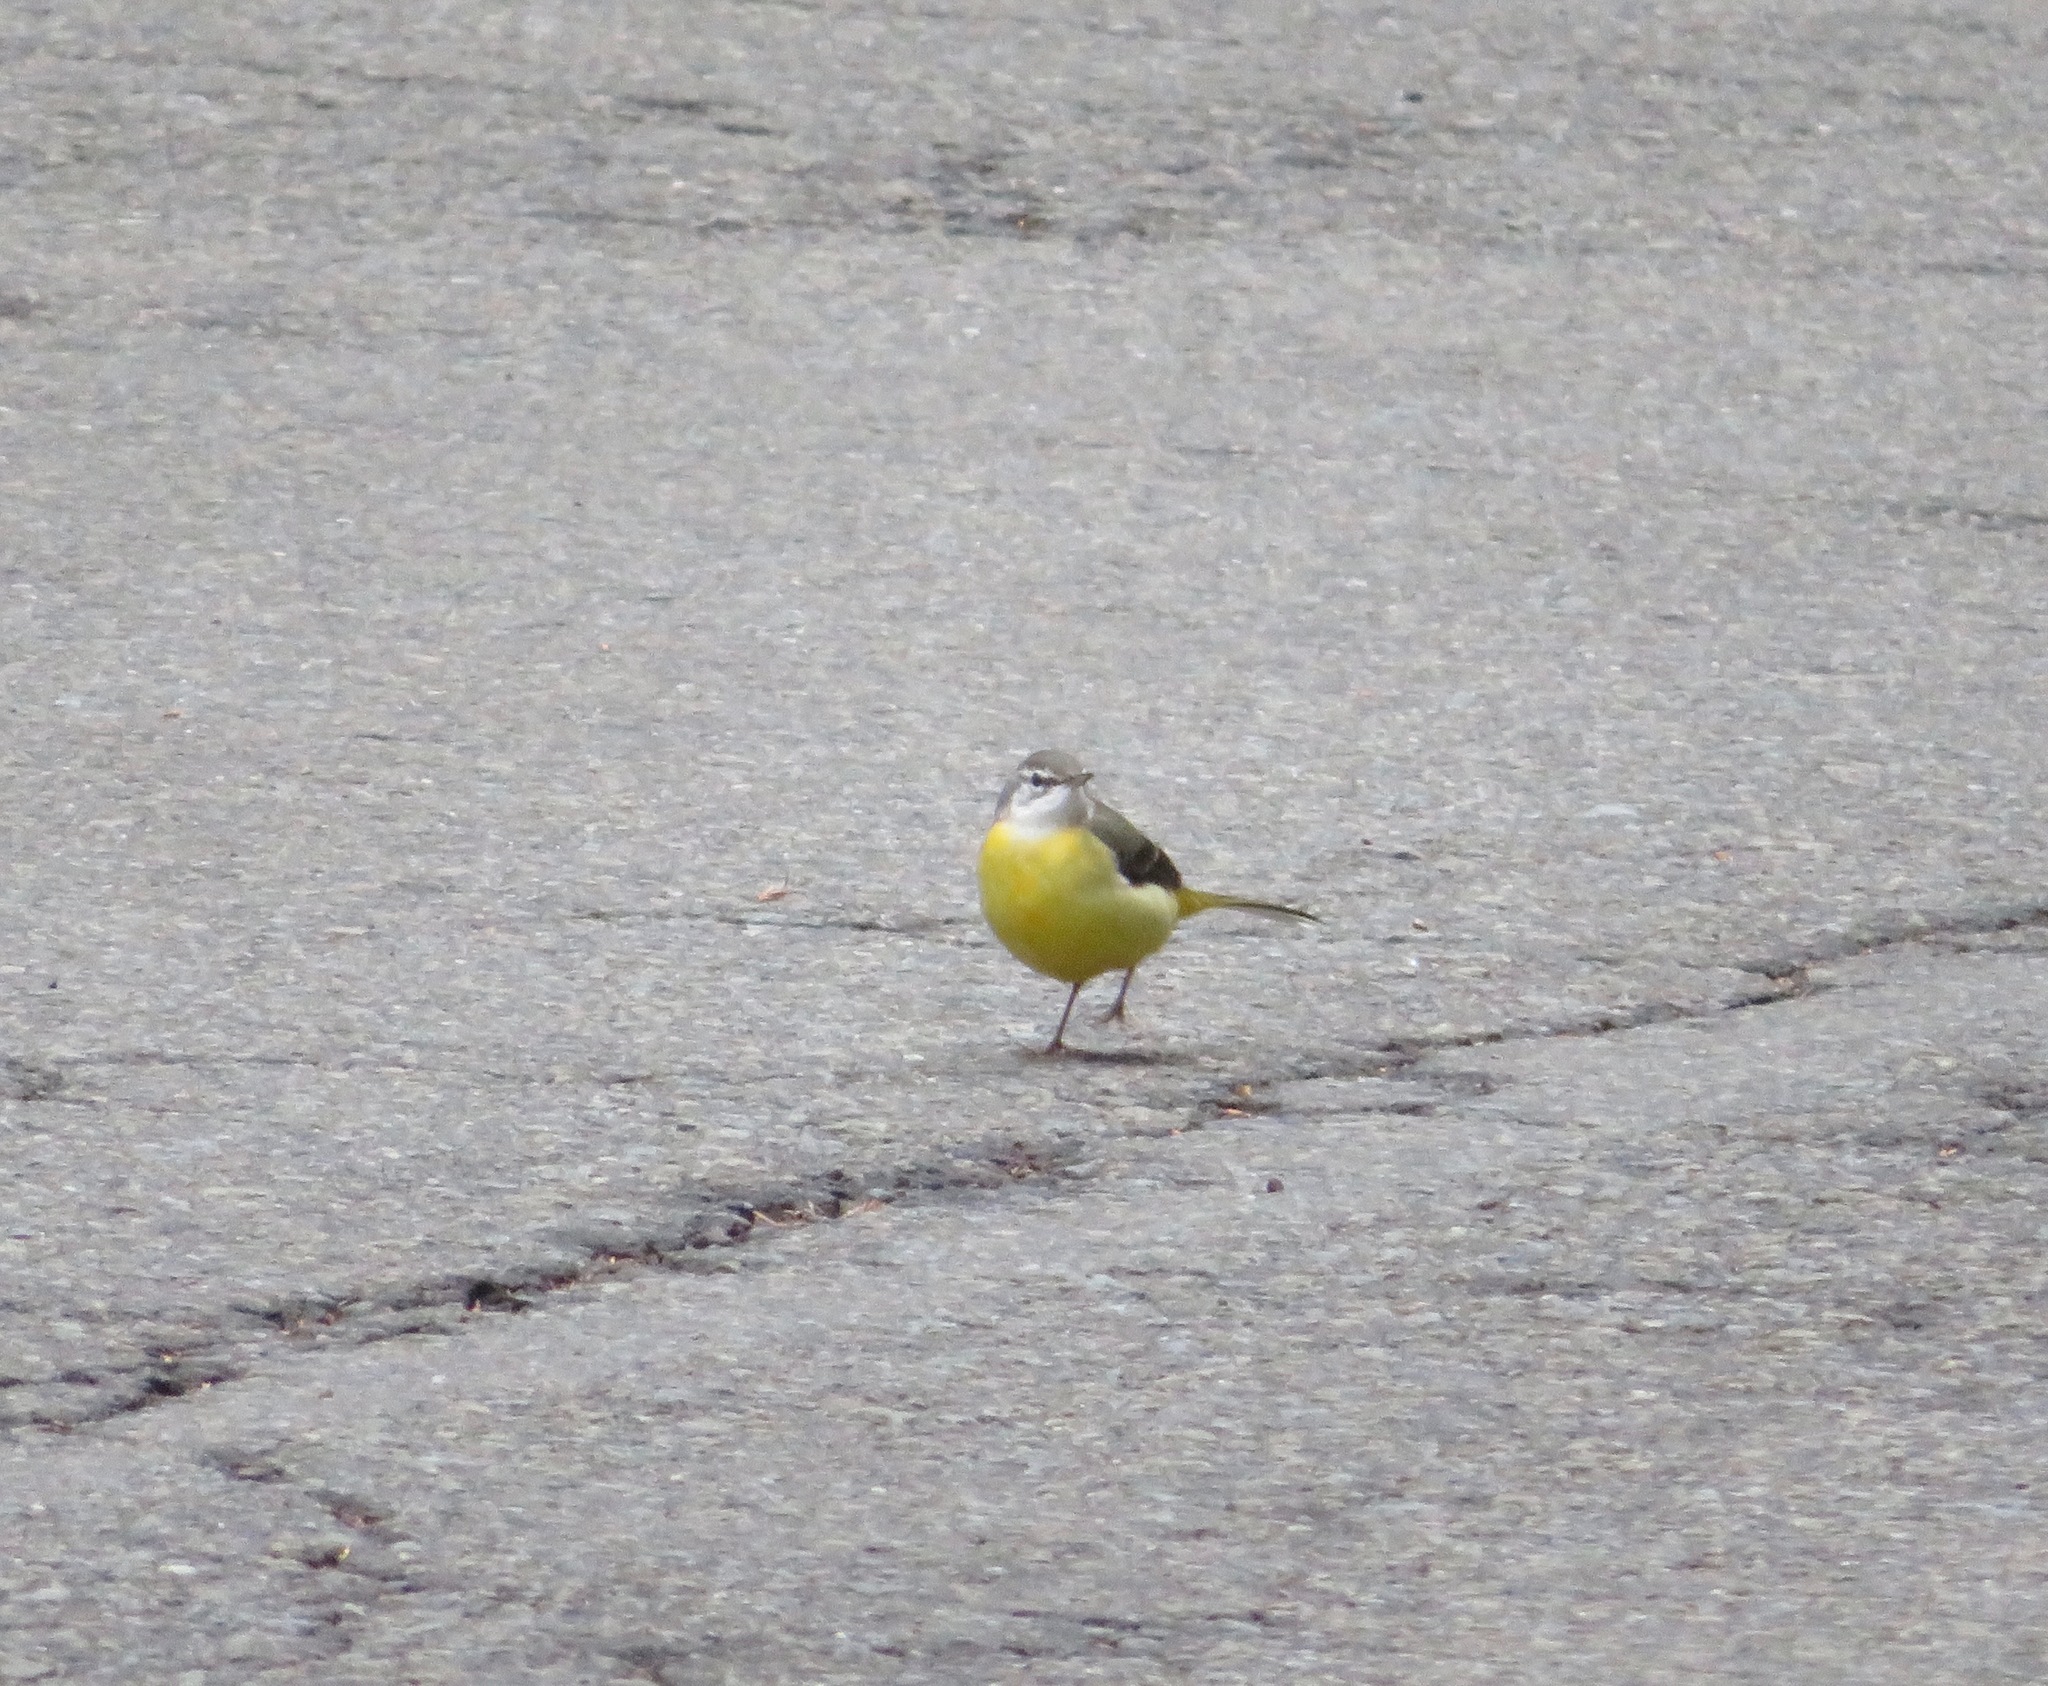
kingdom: Animalia
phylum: Chordata
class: Aves
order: Passeriformes
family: Motacillidae
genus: Motacilla
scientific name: Motacilla cinerea
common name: Grey wagtail
